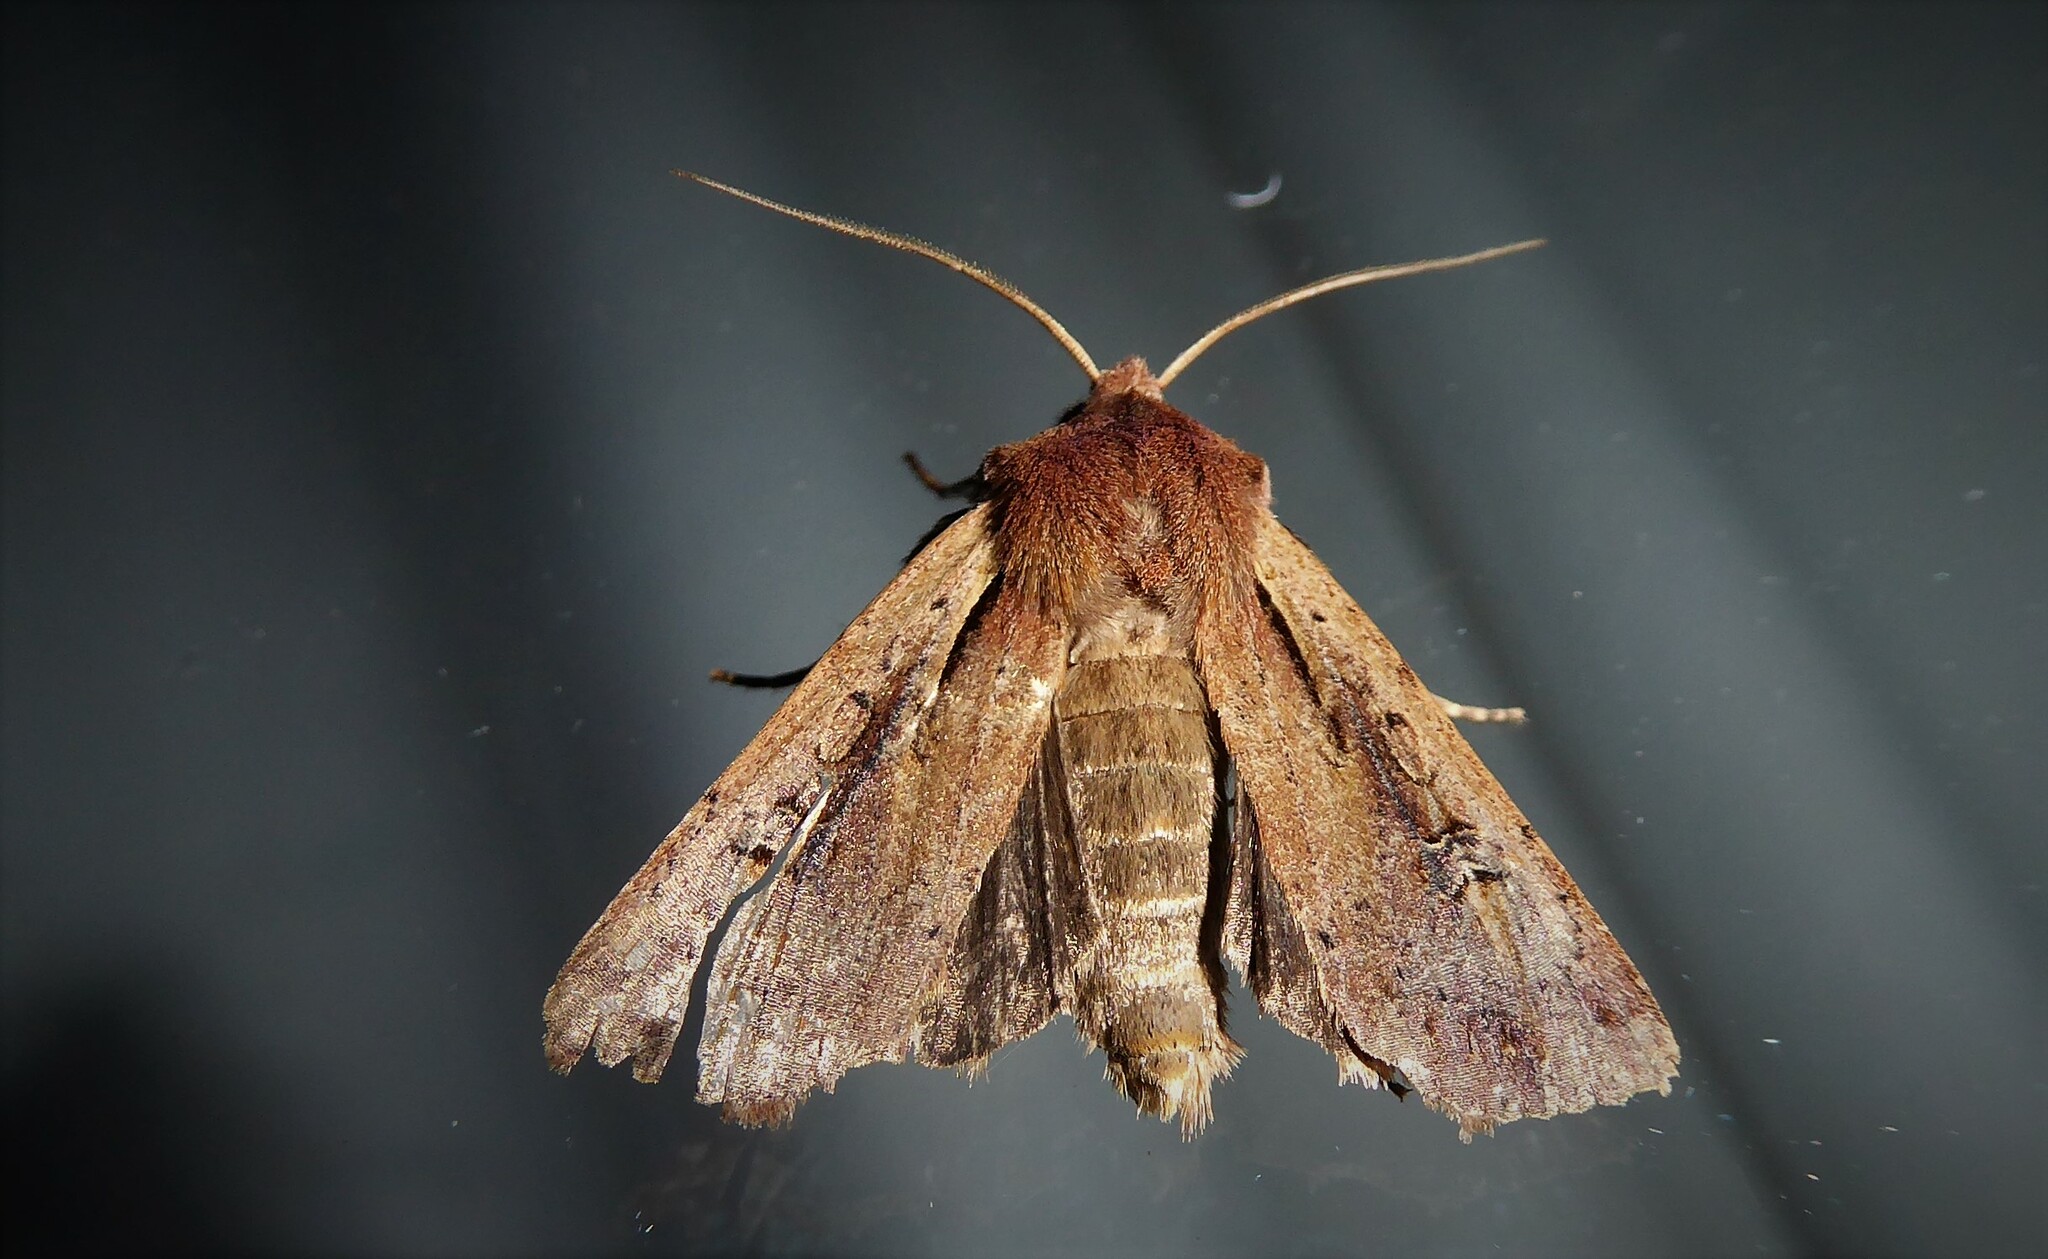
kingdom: Animalia
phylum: Arthropoda
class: Insecta
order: Lepidoptera
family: Noctuidae
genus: Ichneutica
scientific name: Ichneutica atristriga
